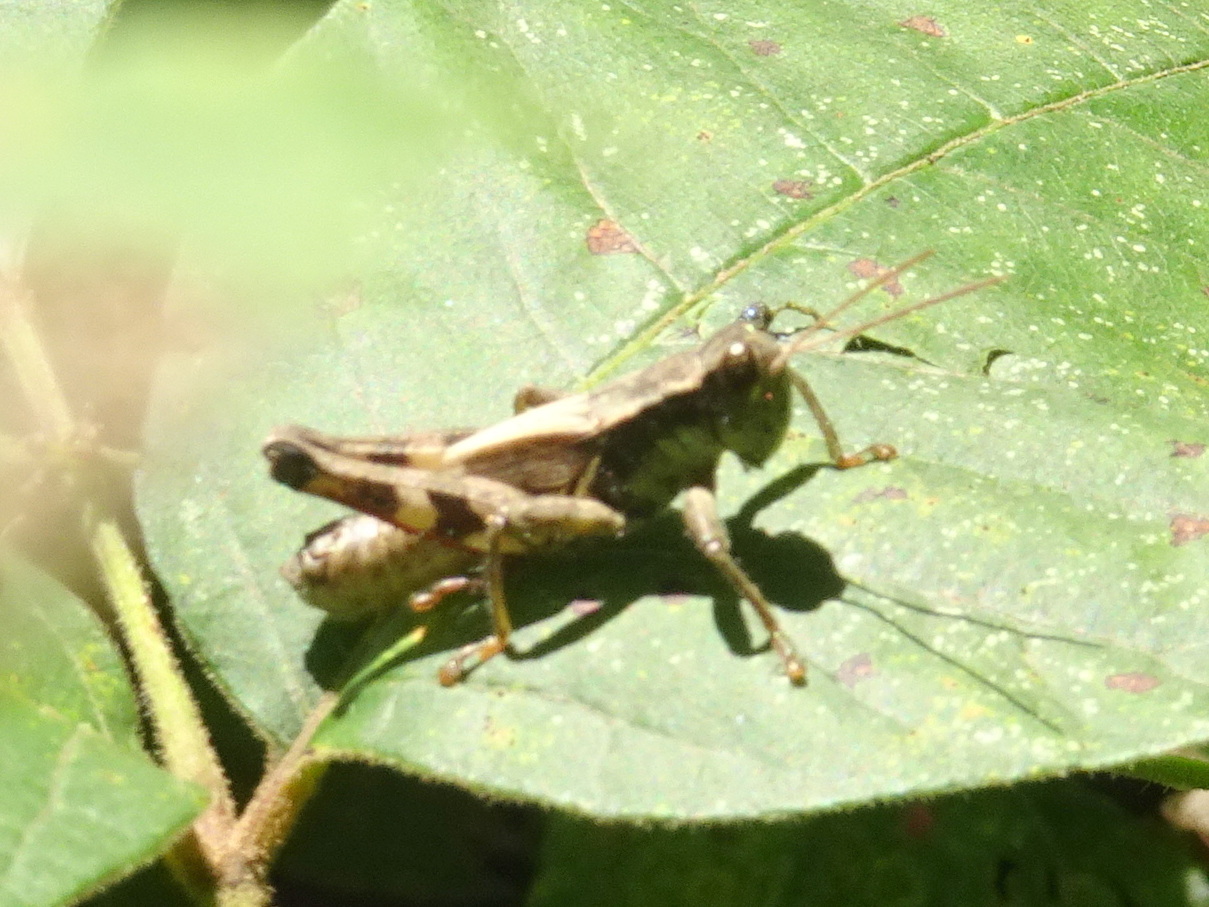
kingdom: Animalia
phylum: Arthropoda
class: Insecta
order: Orthoptera
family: Acrididae
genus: Melanoplus
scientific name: Melanoplus walshii
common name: Walsh's locust
